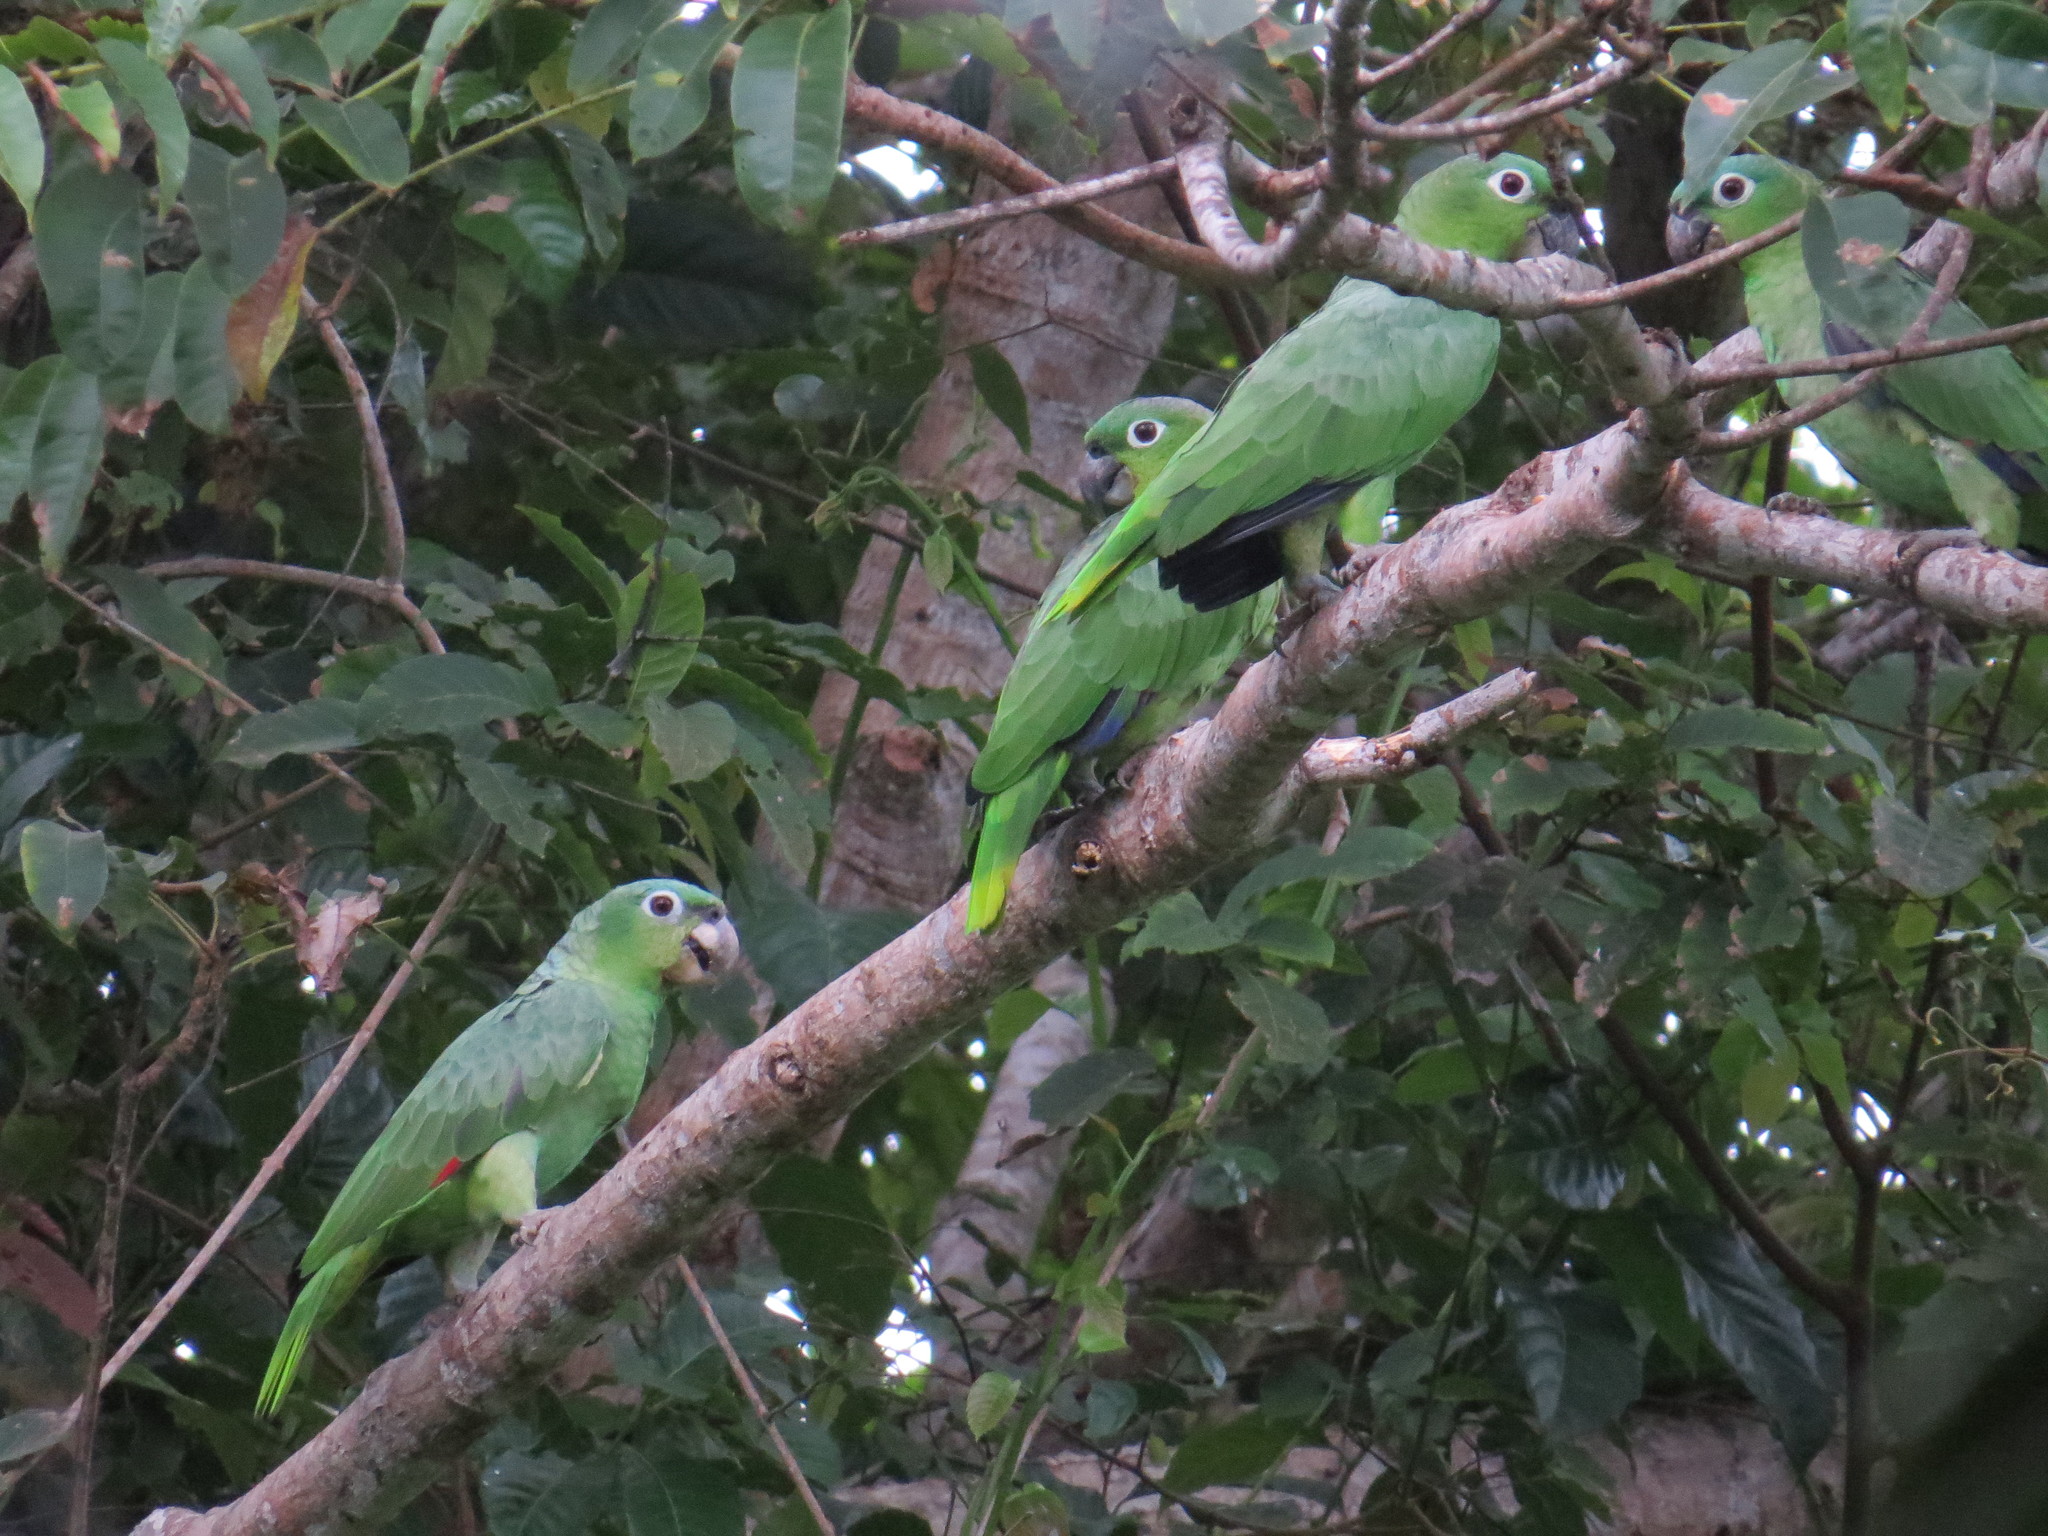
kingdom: Animalia
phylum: Chordata
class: Aves
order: Psittaciformes
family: Psittacidae
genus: Amazona
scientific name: Amazona farinosa
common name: Mealy parrot
